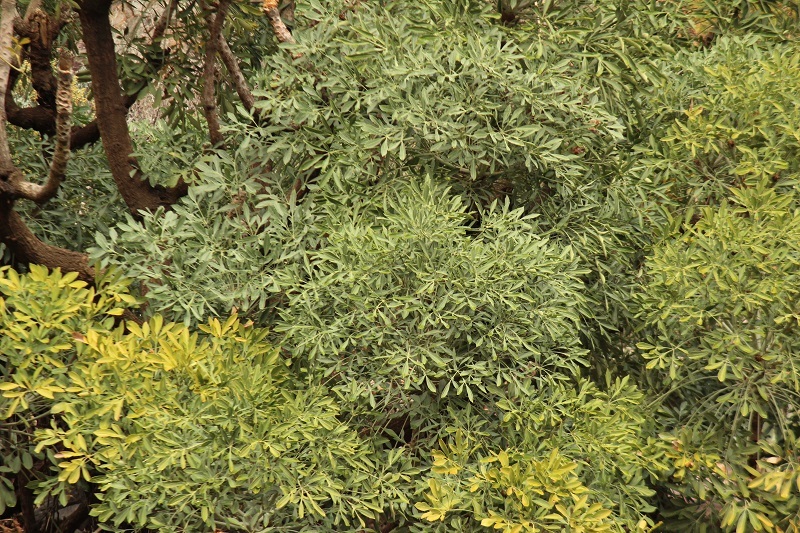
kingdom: Plantae
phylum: Tracheophyta
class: Magnoliopsida
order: Apiales
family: Araliaceae
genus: Cussonia
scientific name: Cussonia spicata
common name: Common cabbagetree
